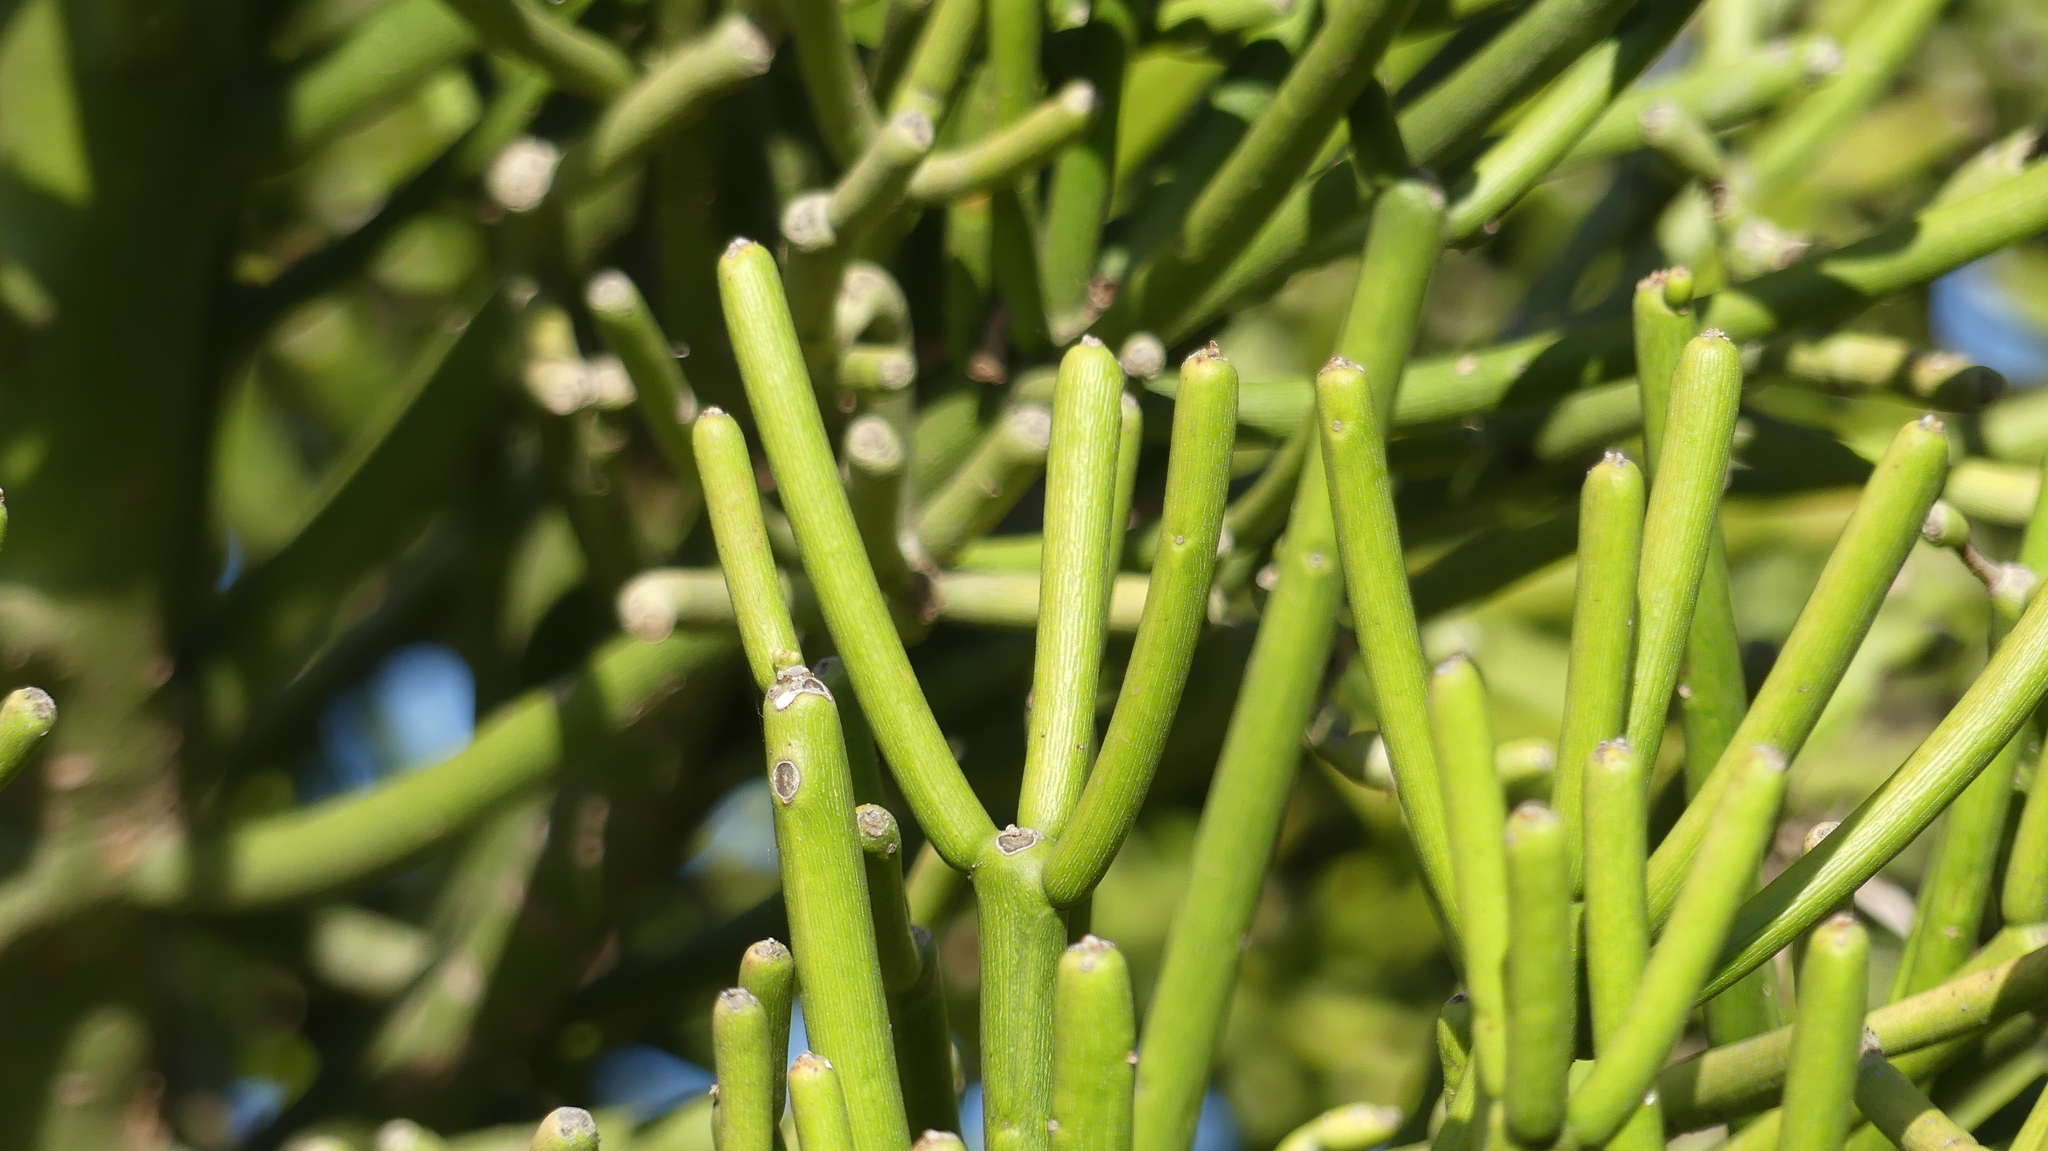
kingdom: Plantae
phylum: Tracheophyta
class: Magnoliopsida
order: Malpighiales
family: Euphorbiaceae
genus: Euphorbia
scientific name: Euphorbia tirucalli
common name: Indiantree spurge
